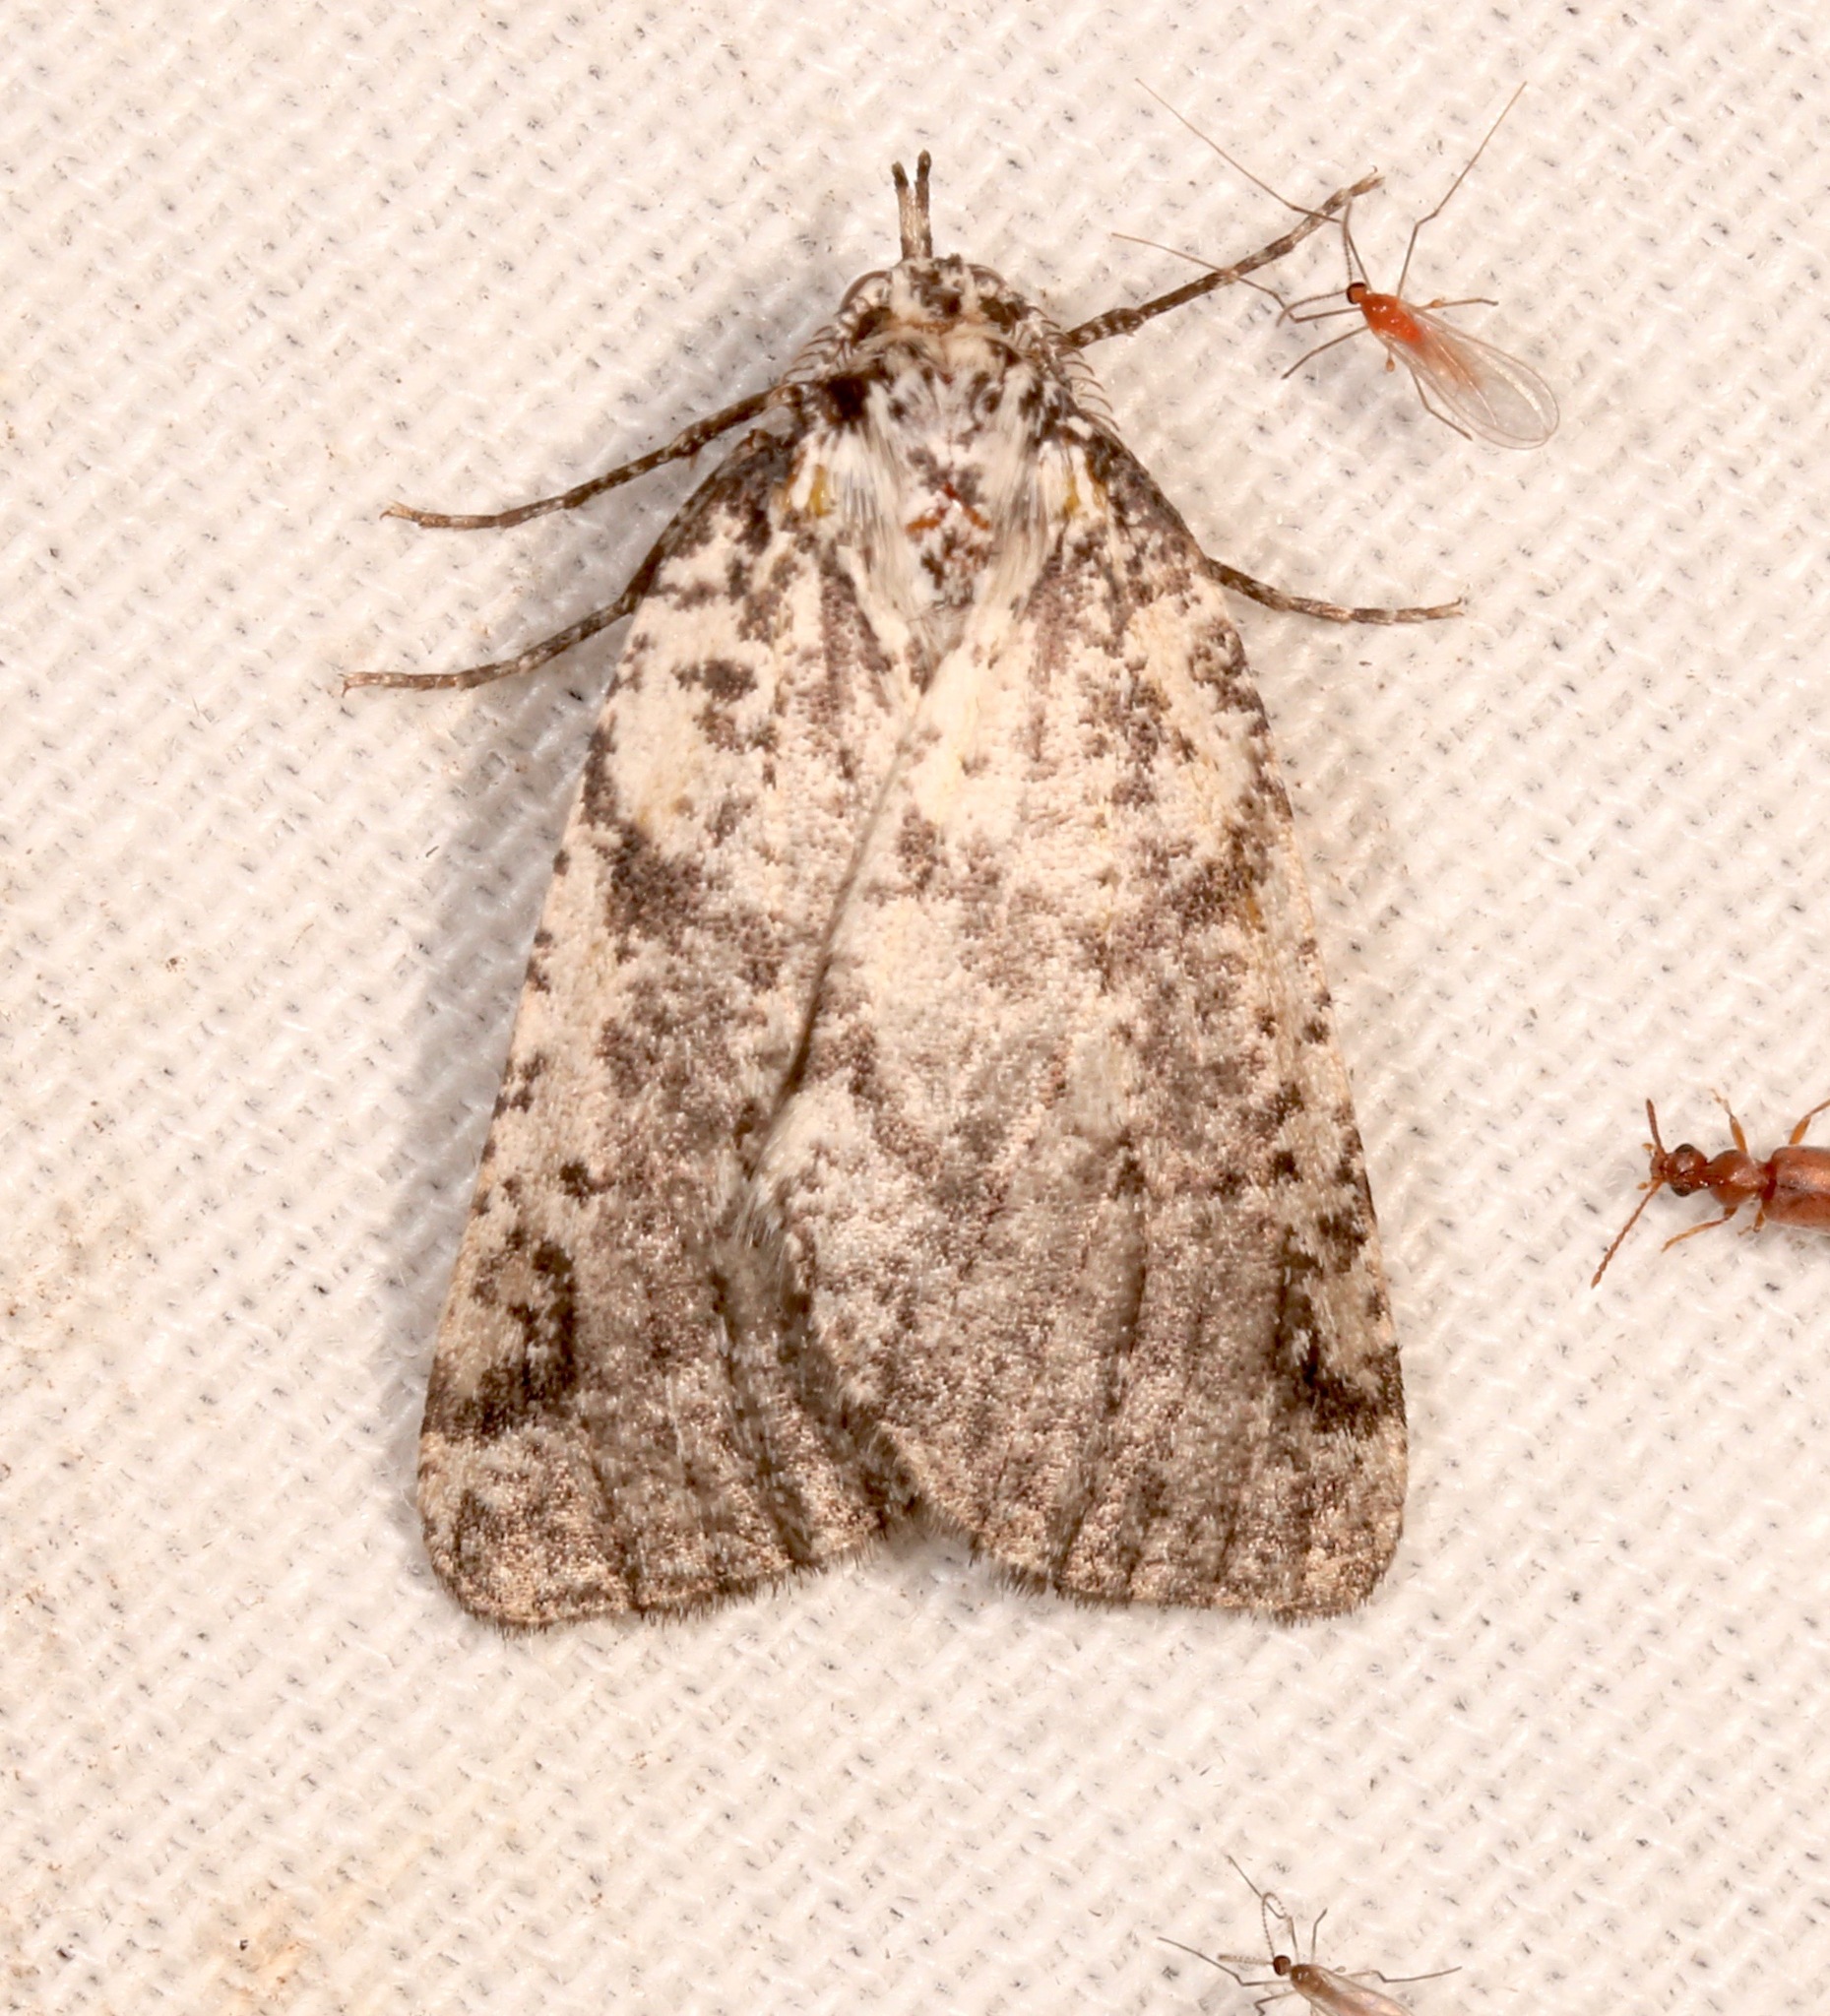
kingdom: Animalia
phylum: Arthropoda
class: Insecta
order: Lepidoptera
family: Geometridae
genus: Eucaterva
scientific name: Eucaterva variaria
